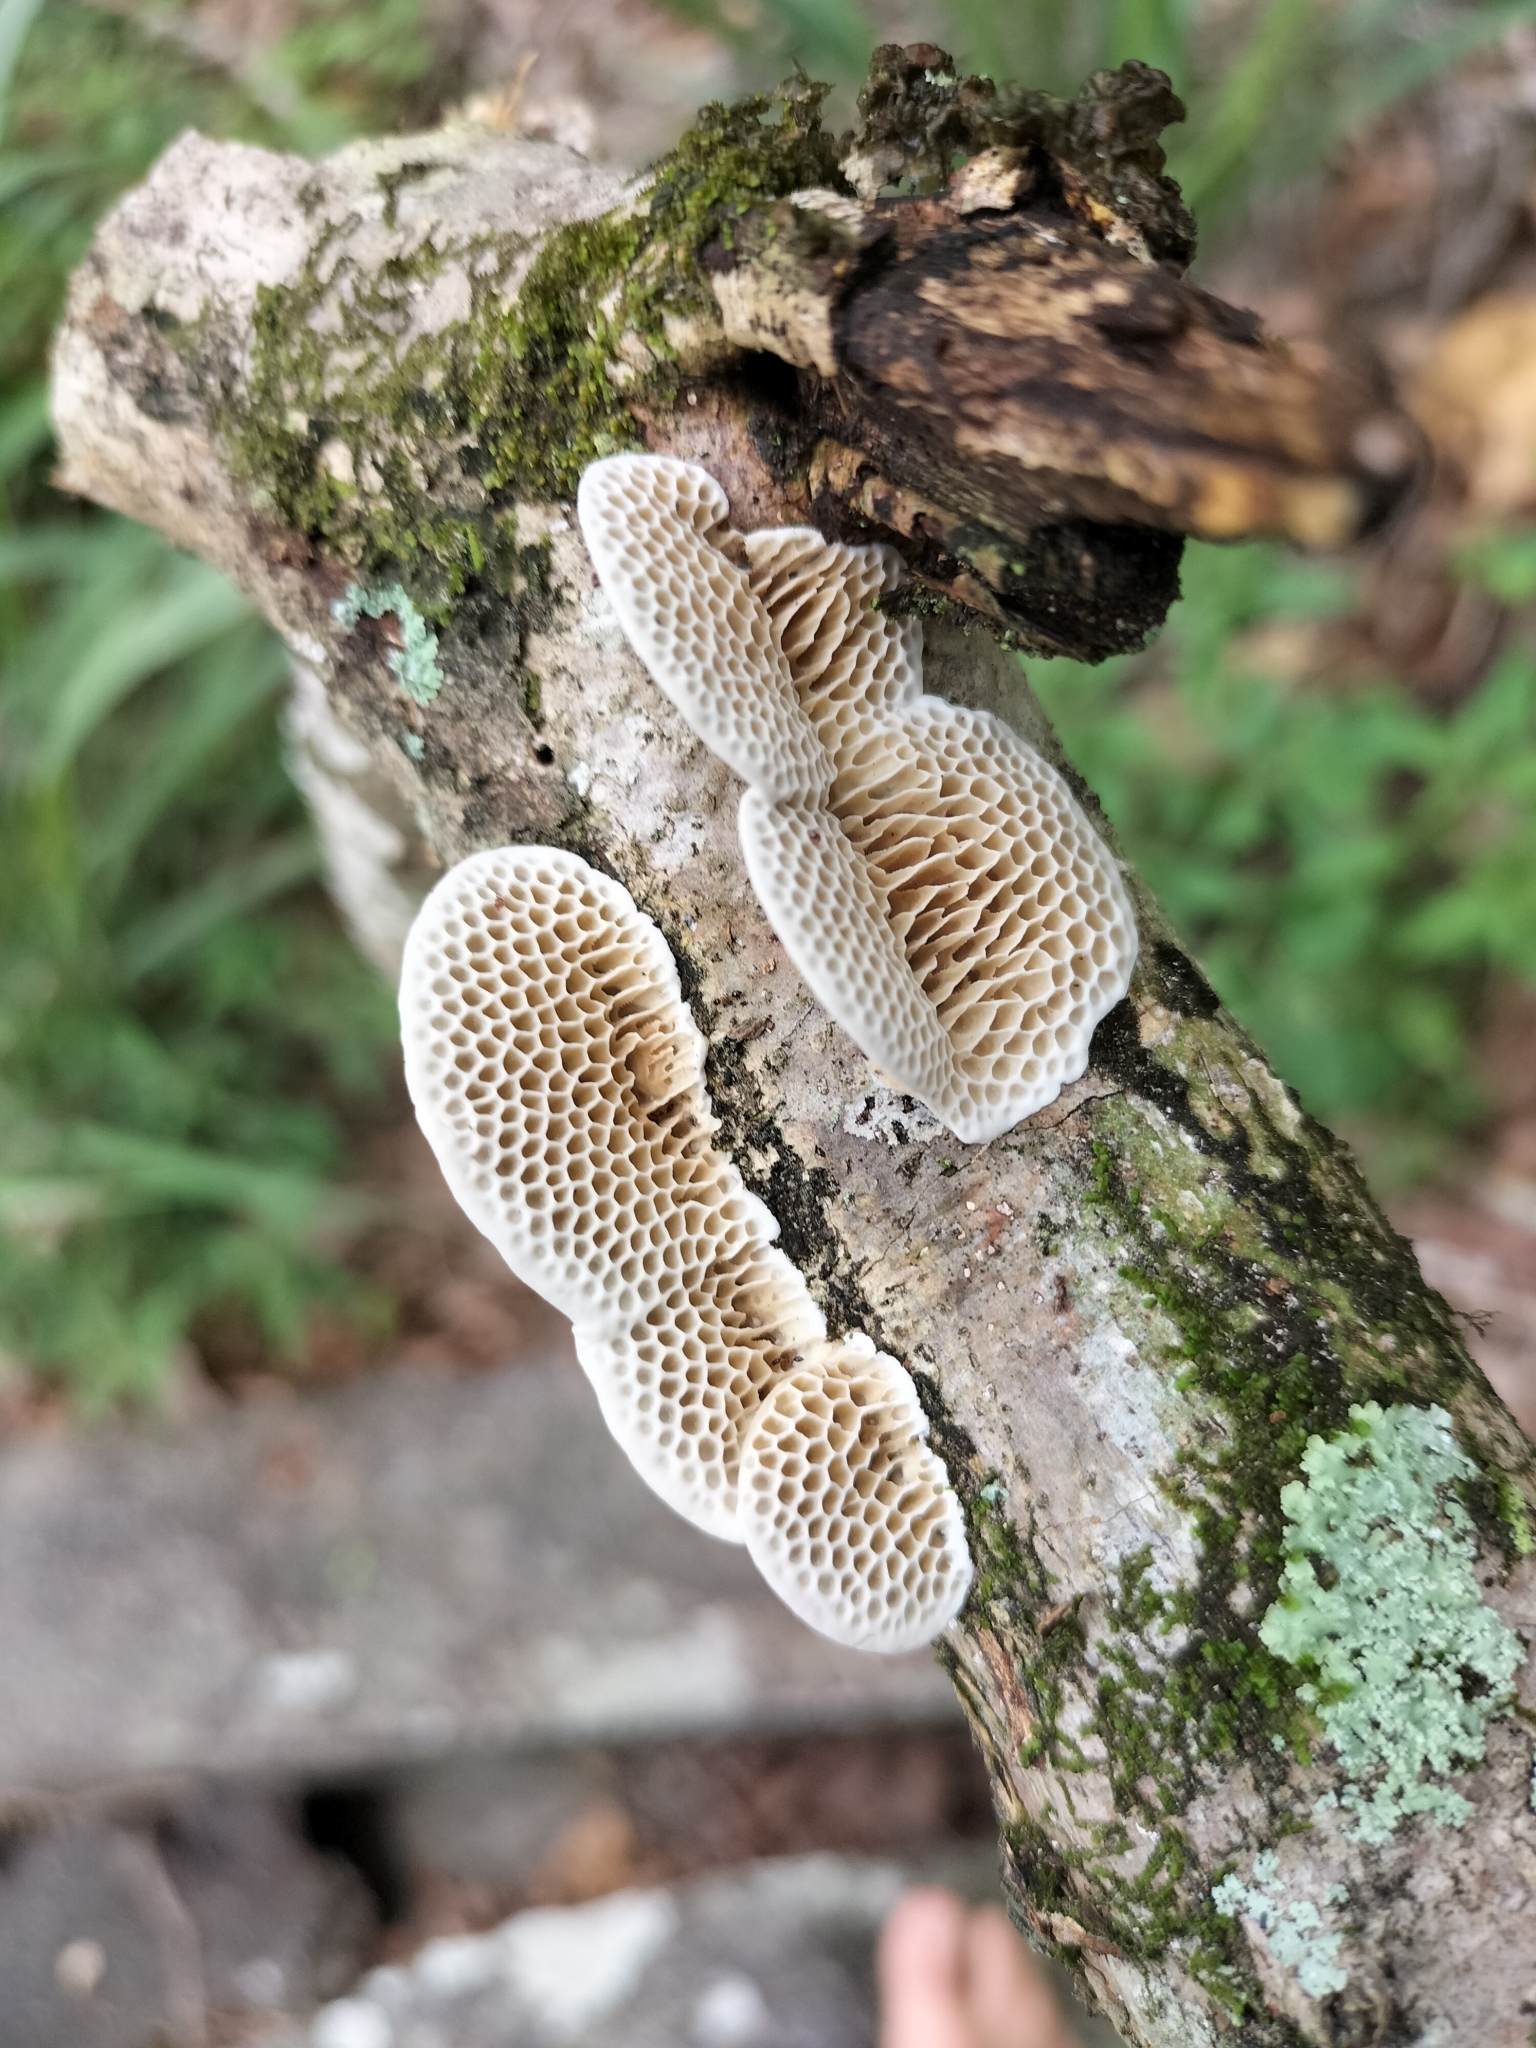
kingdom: Fungi
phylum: Basidiomycota
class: Agaricomycetes
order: Polyporales
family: Polyporaceae
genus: Pseudofavolus
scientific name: Pseudofavolus tenuis
